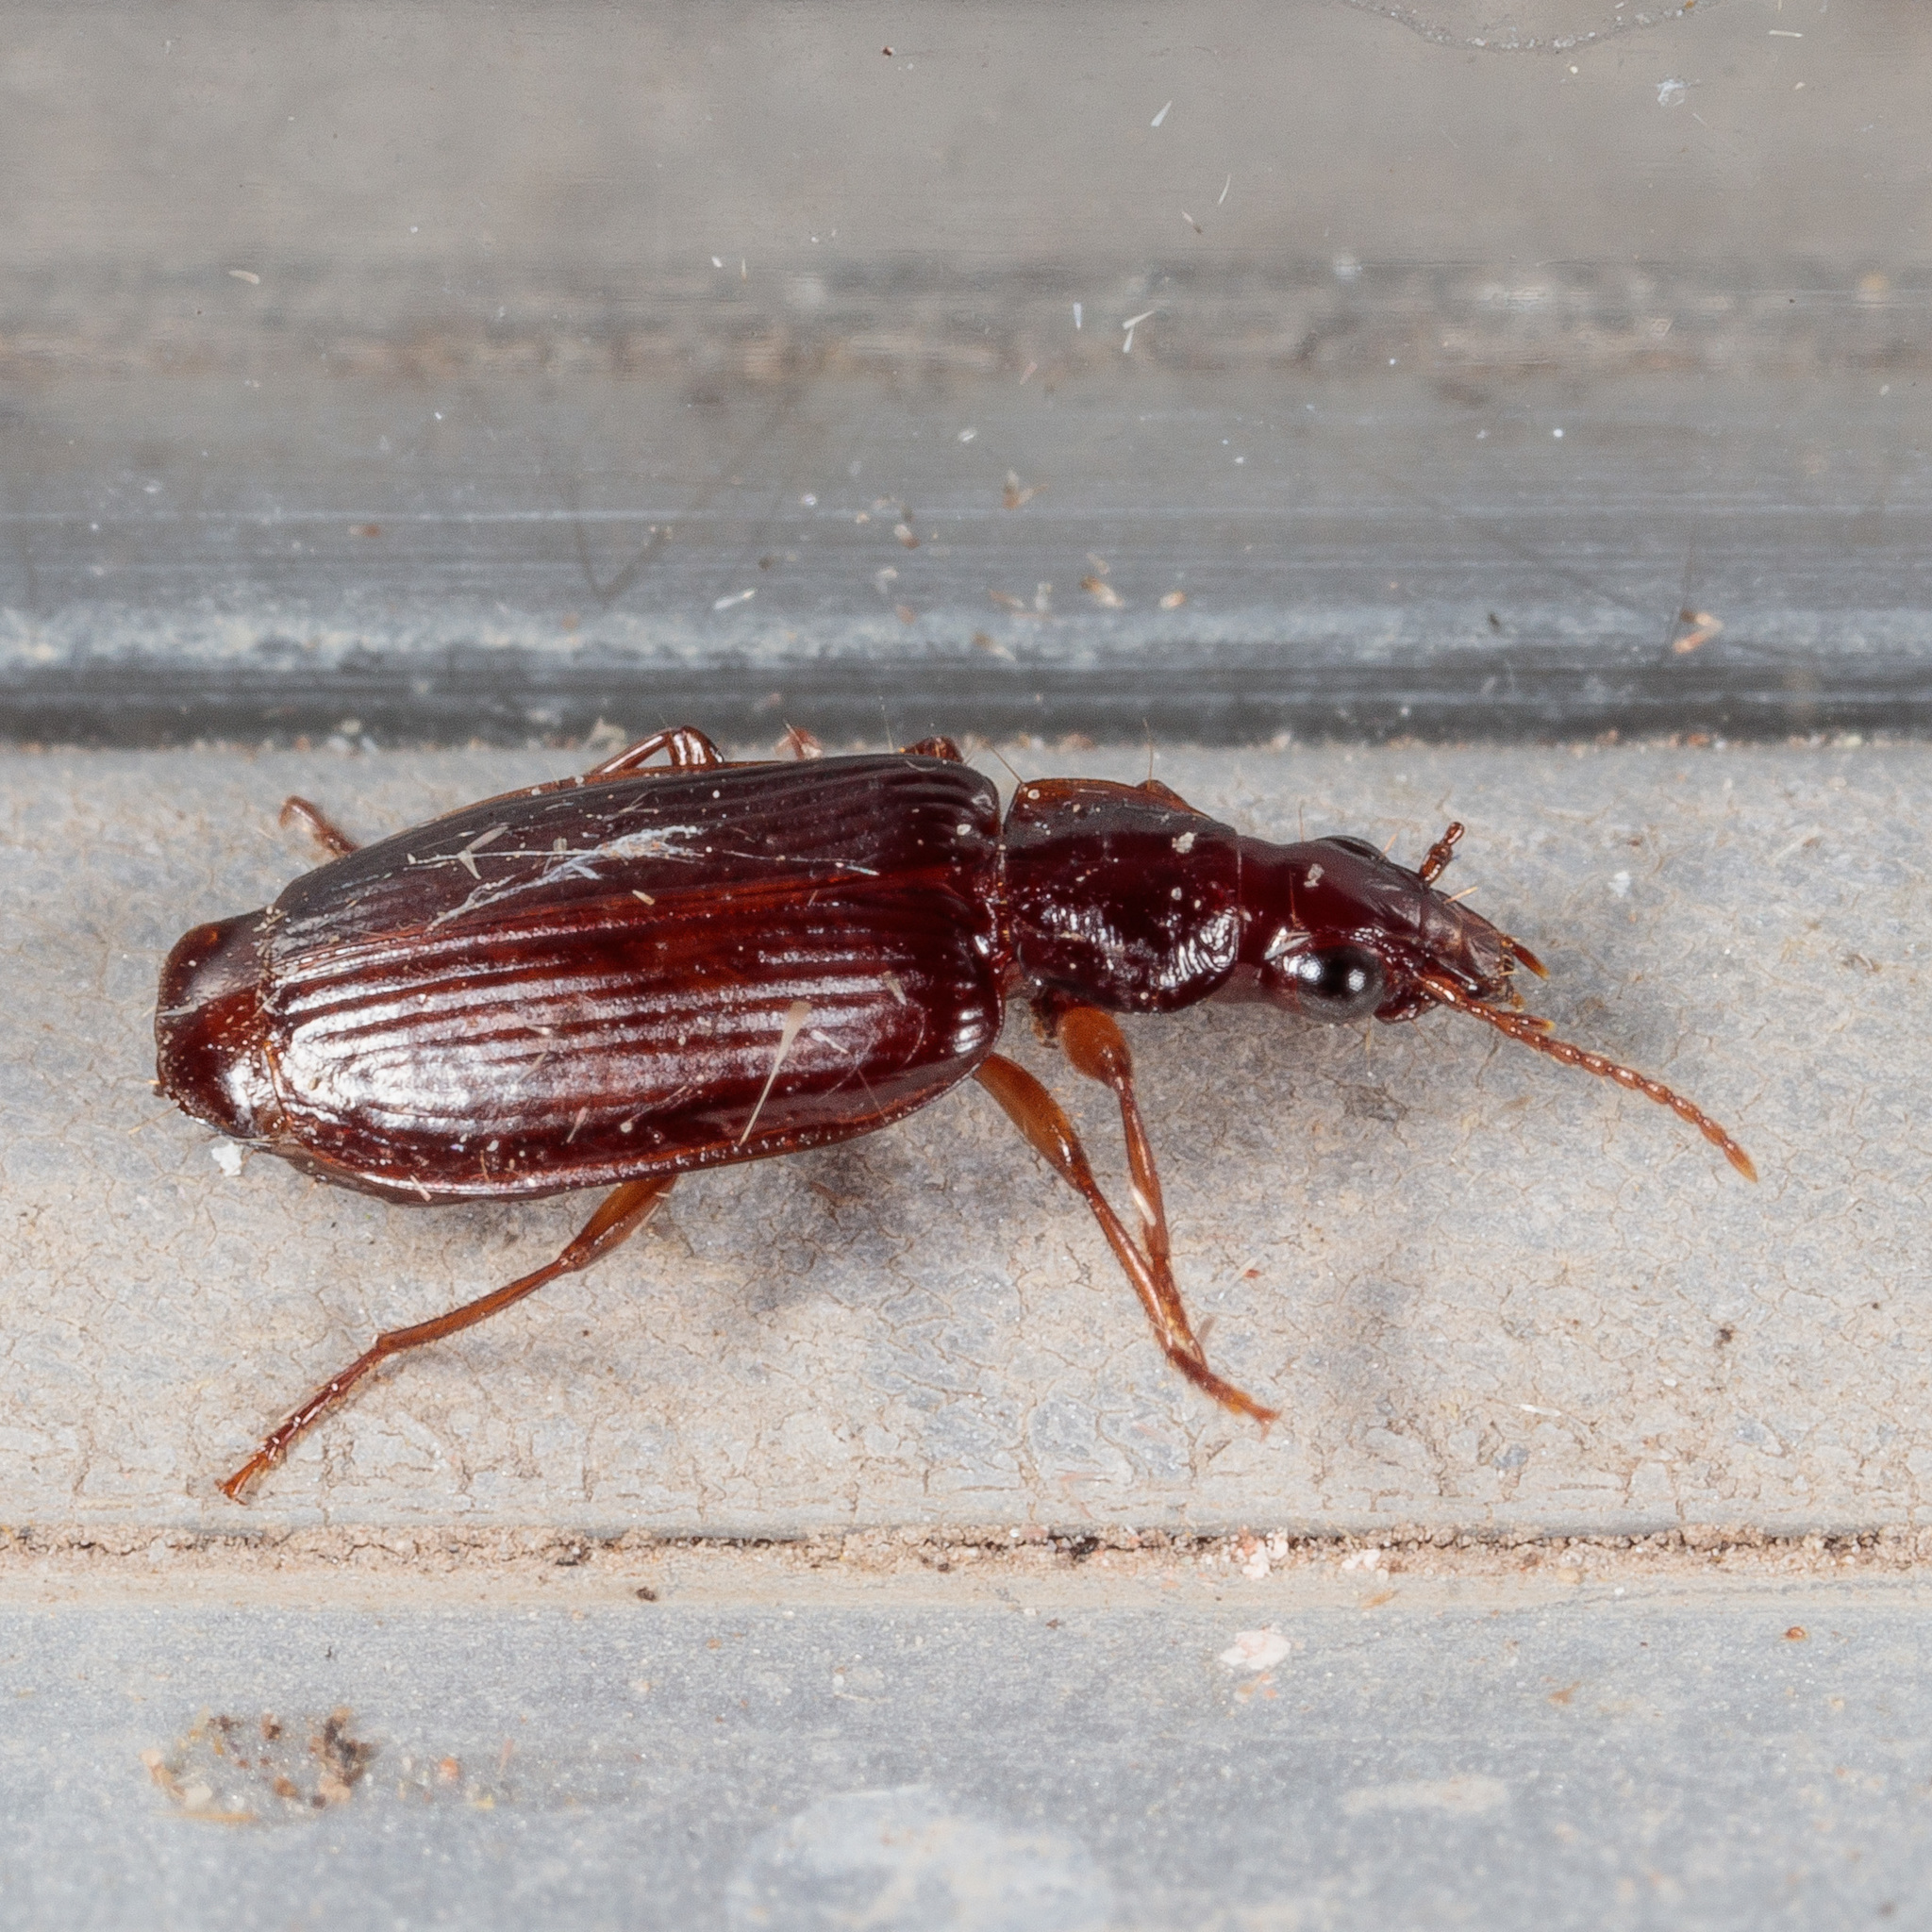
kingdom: Animalia
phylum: Arthropoda
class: Insecta
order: Coleoptera
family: Carabidae
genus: Plochionus
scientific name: Plochionus timidus
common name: Timid harp ground beetle
